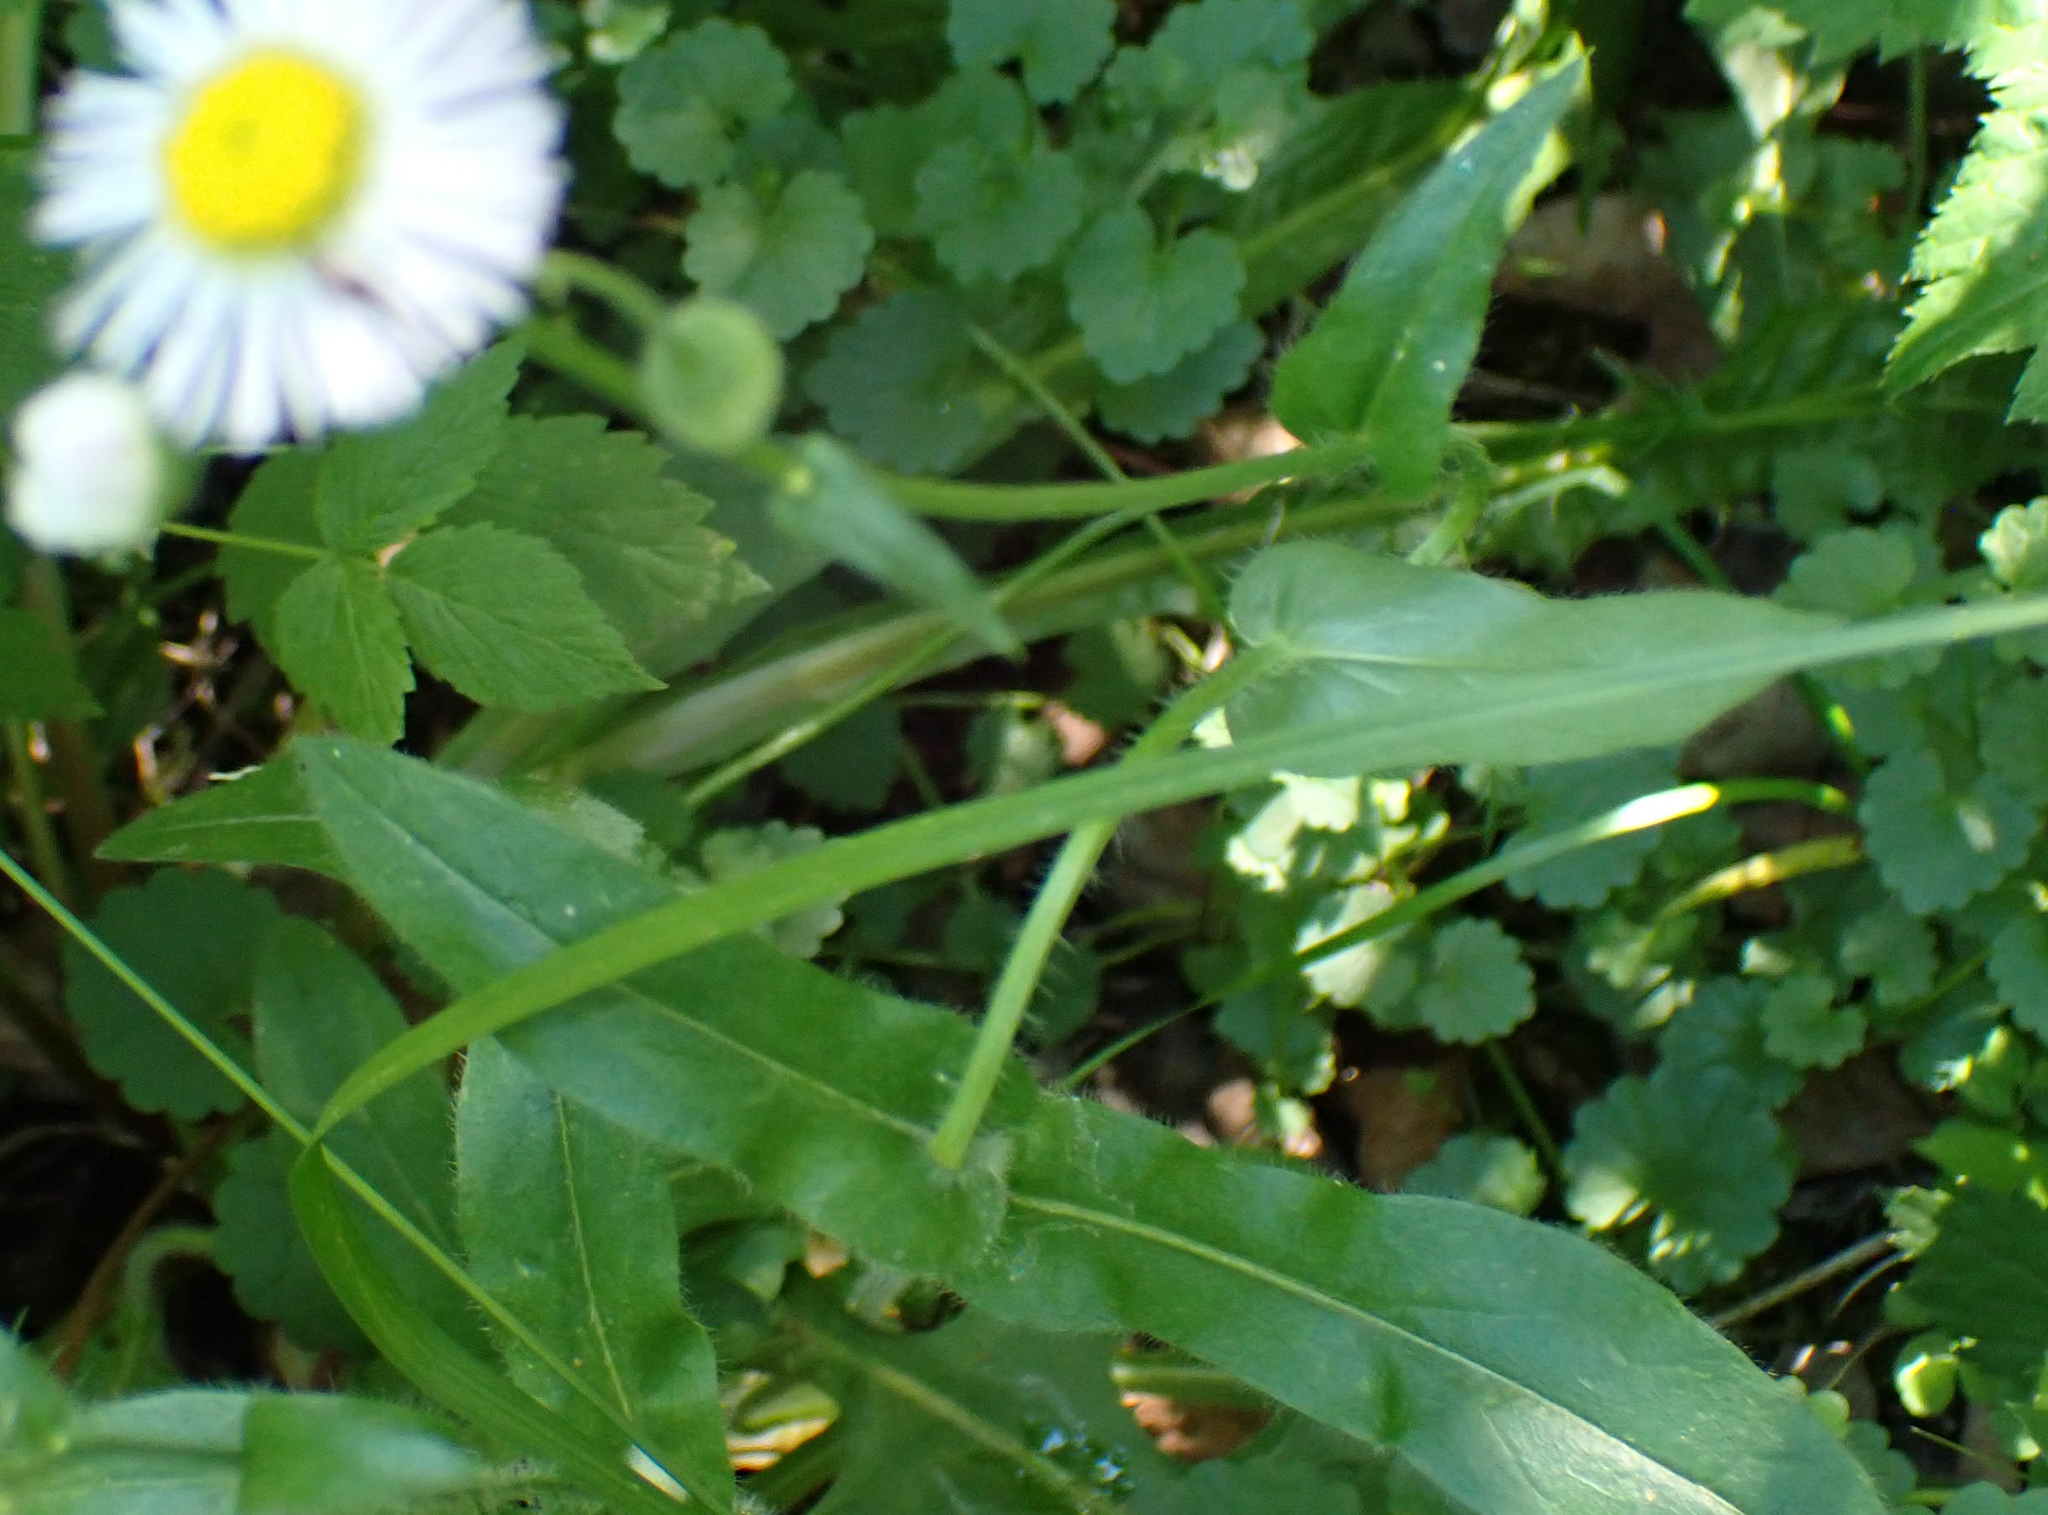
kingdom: Plantae
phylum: Tracheophyta
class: Magnoliopsida
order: Asterales
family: Asteraceae
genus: Erigeron
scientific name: Erigeron philadelphicus
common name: Robin's-plantain
